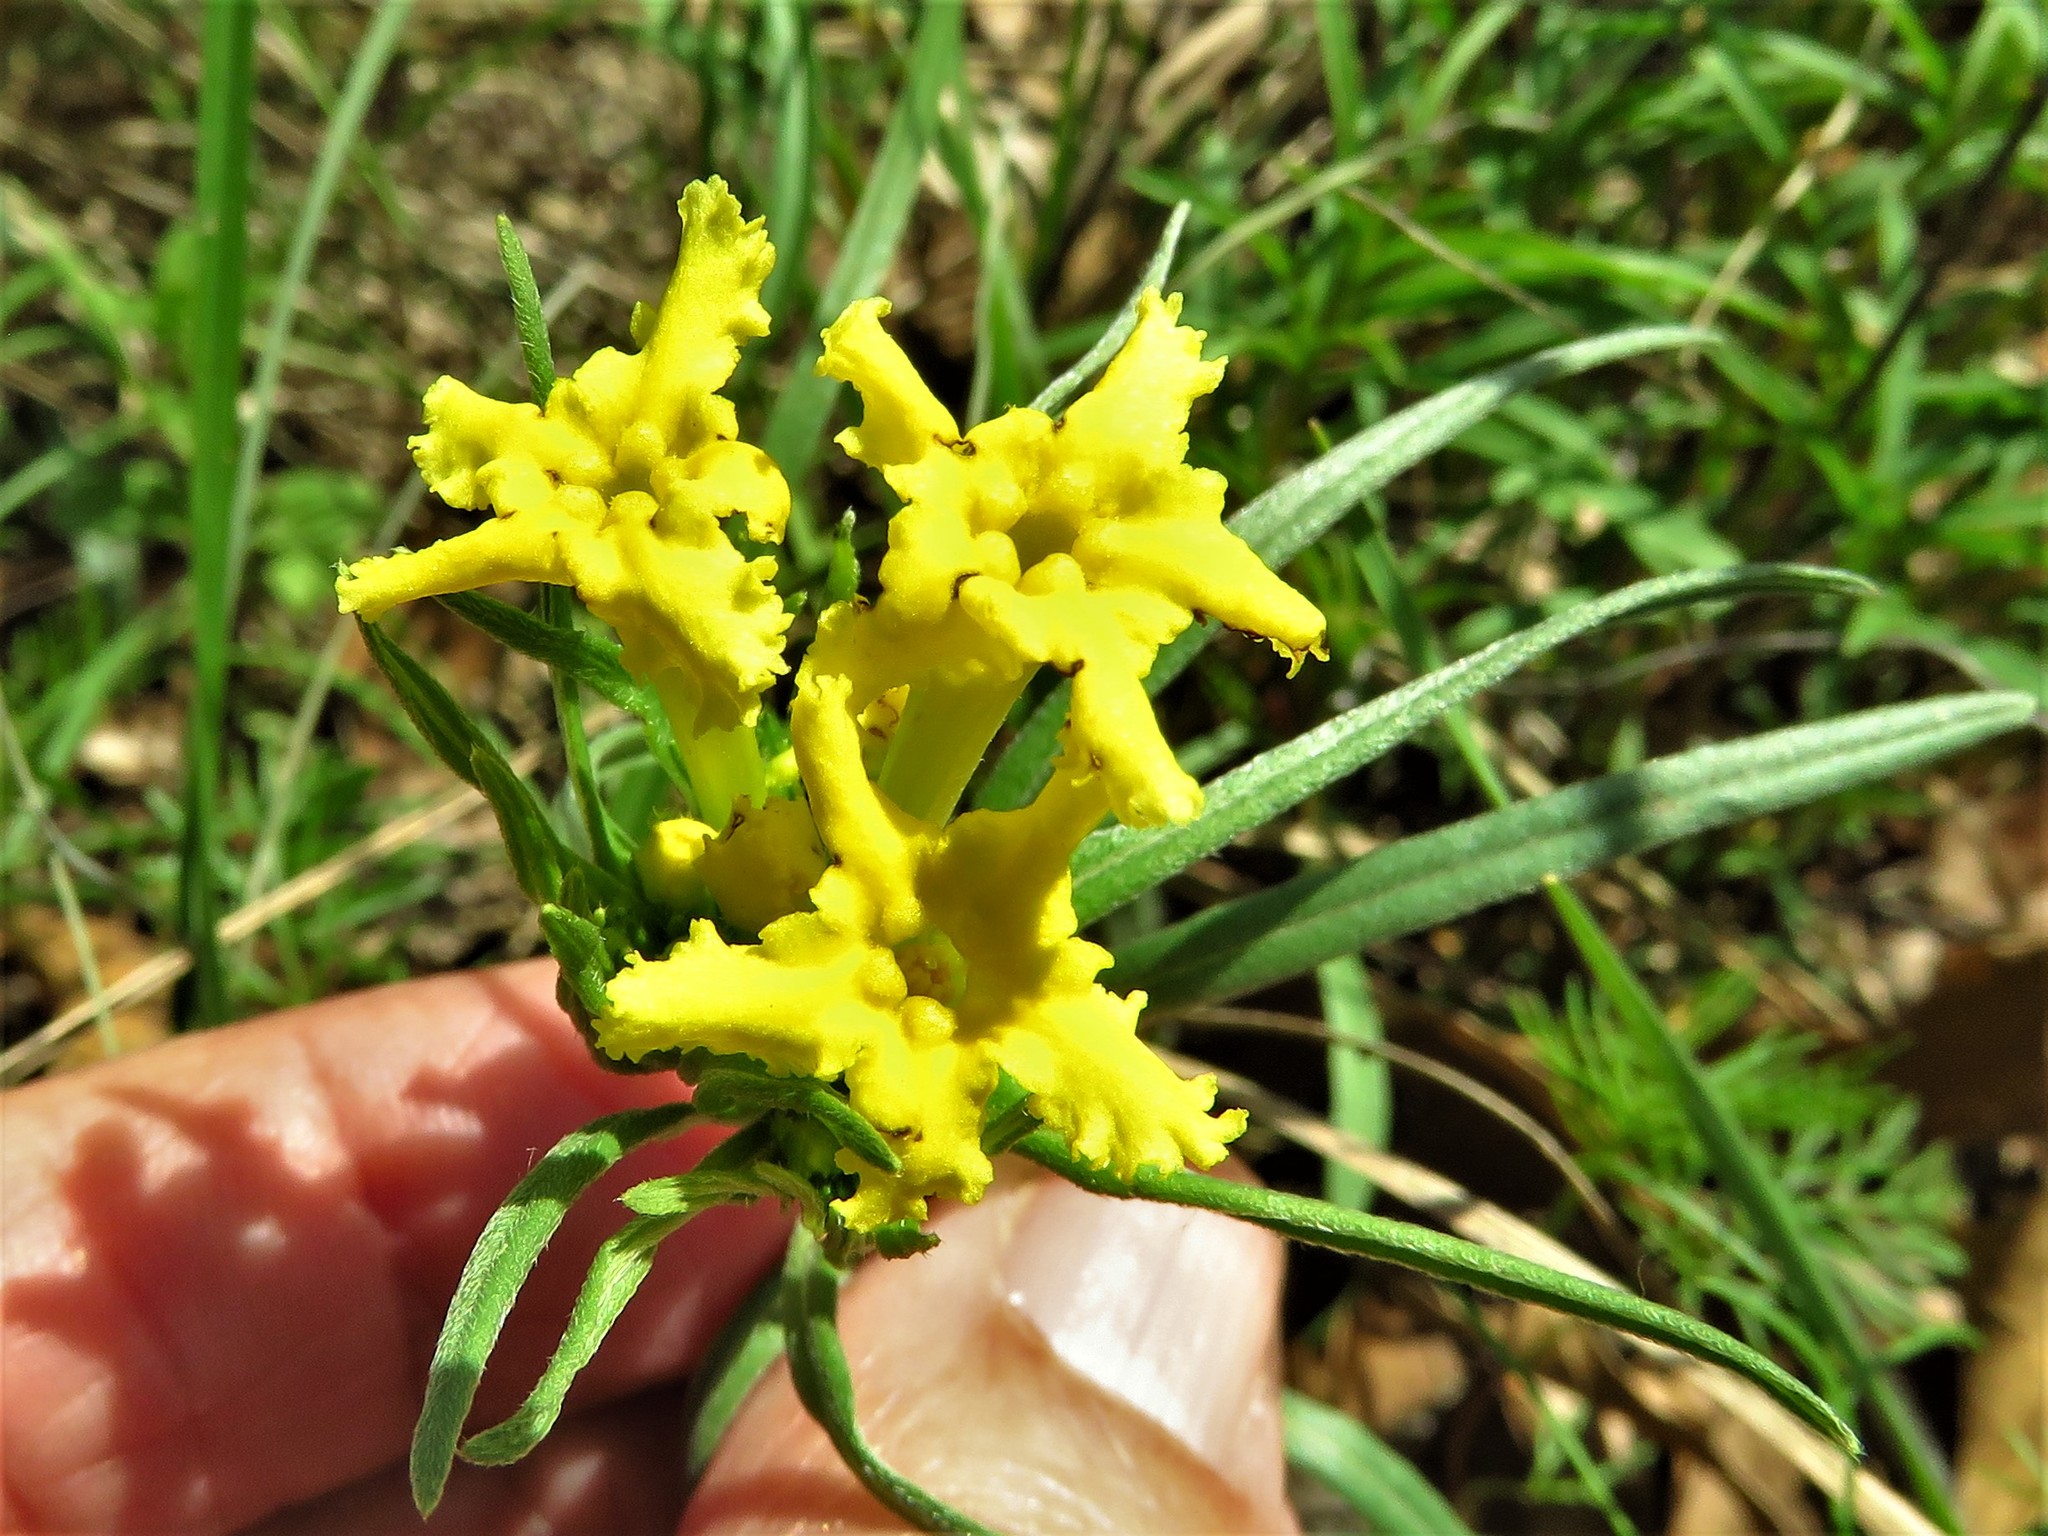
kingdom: Plantae
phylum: Tracheophyta
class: Magnoliopsida
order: Boraginales
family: Boraginaceae
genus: Lithospermum
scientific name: Lithospermum incisum
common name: Fringed gromwell
